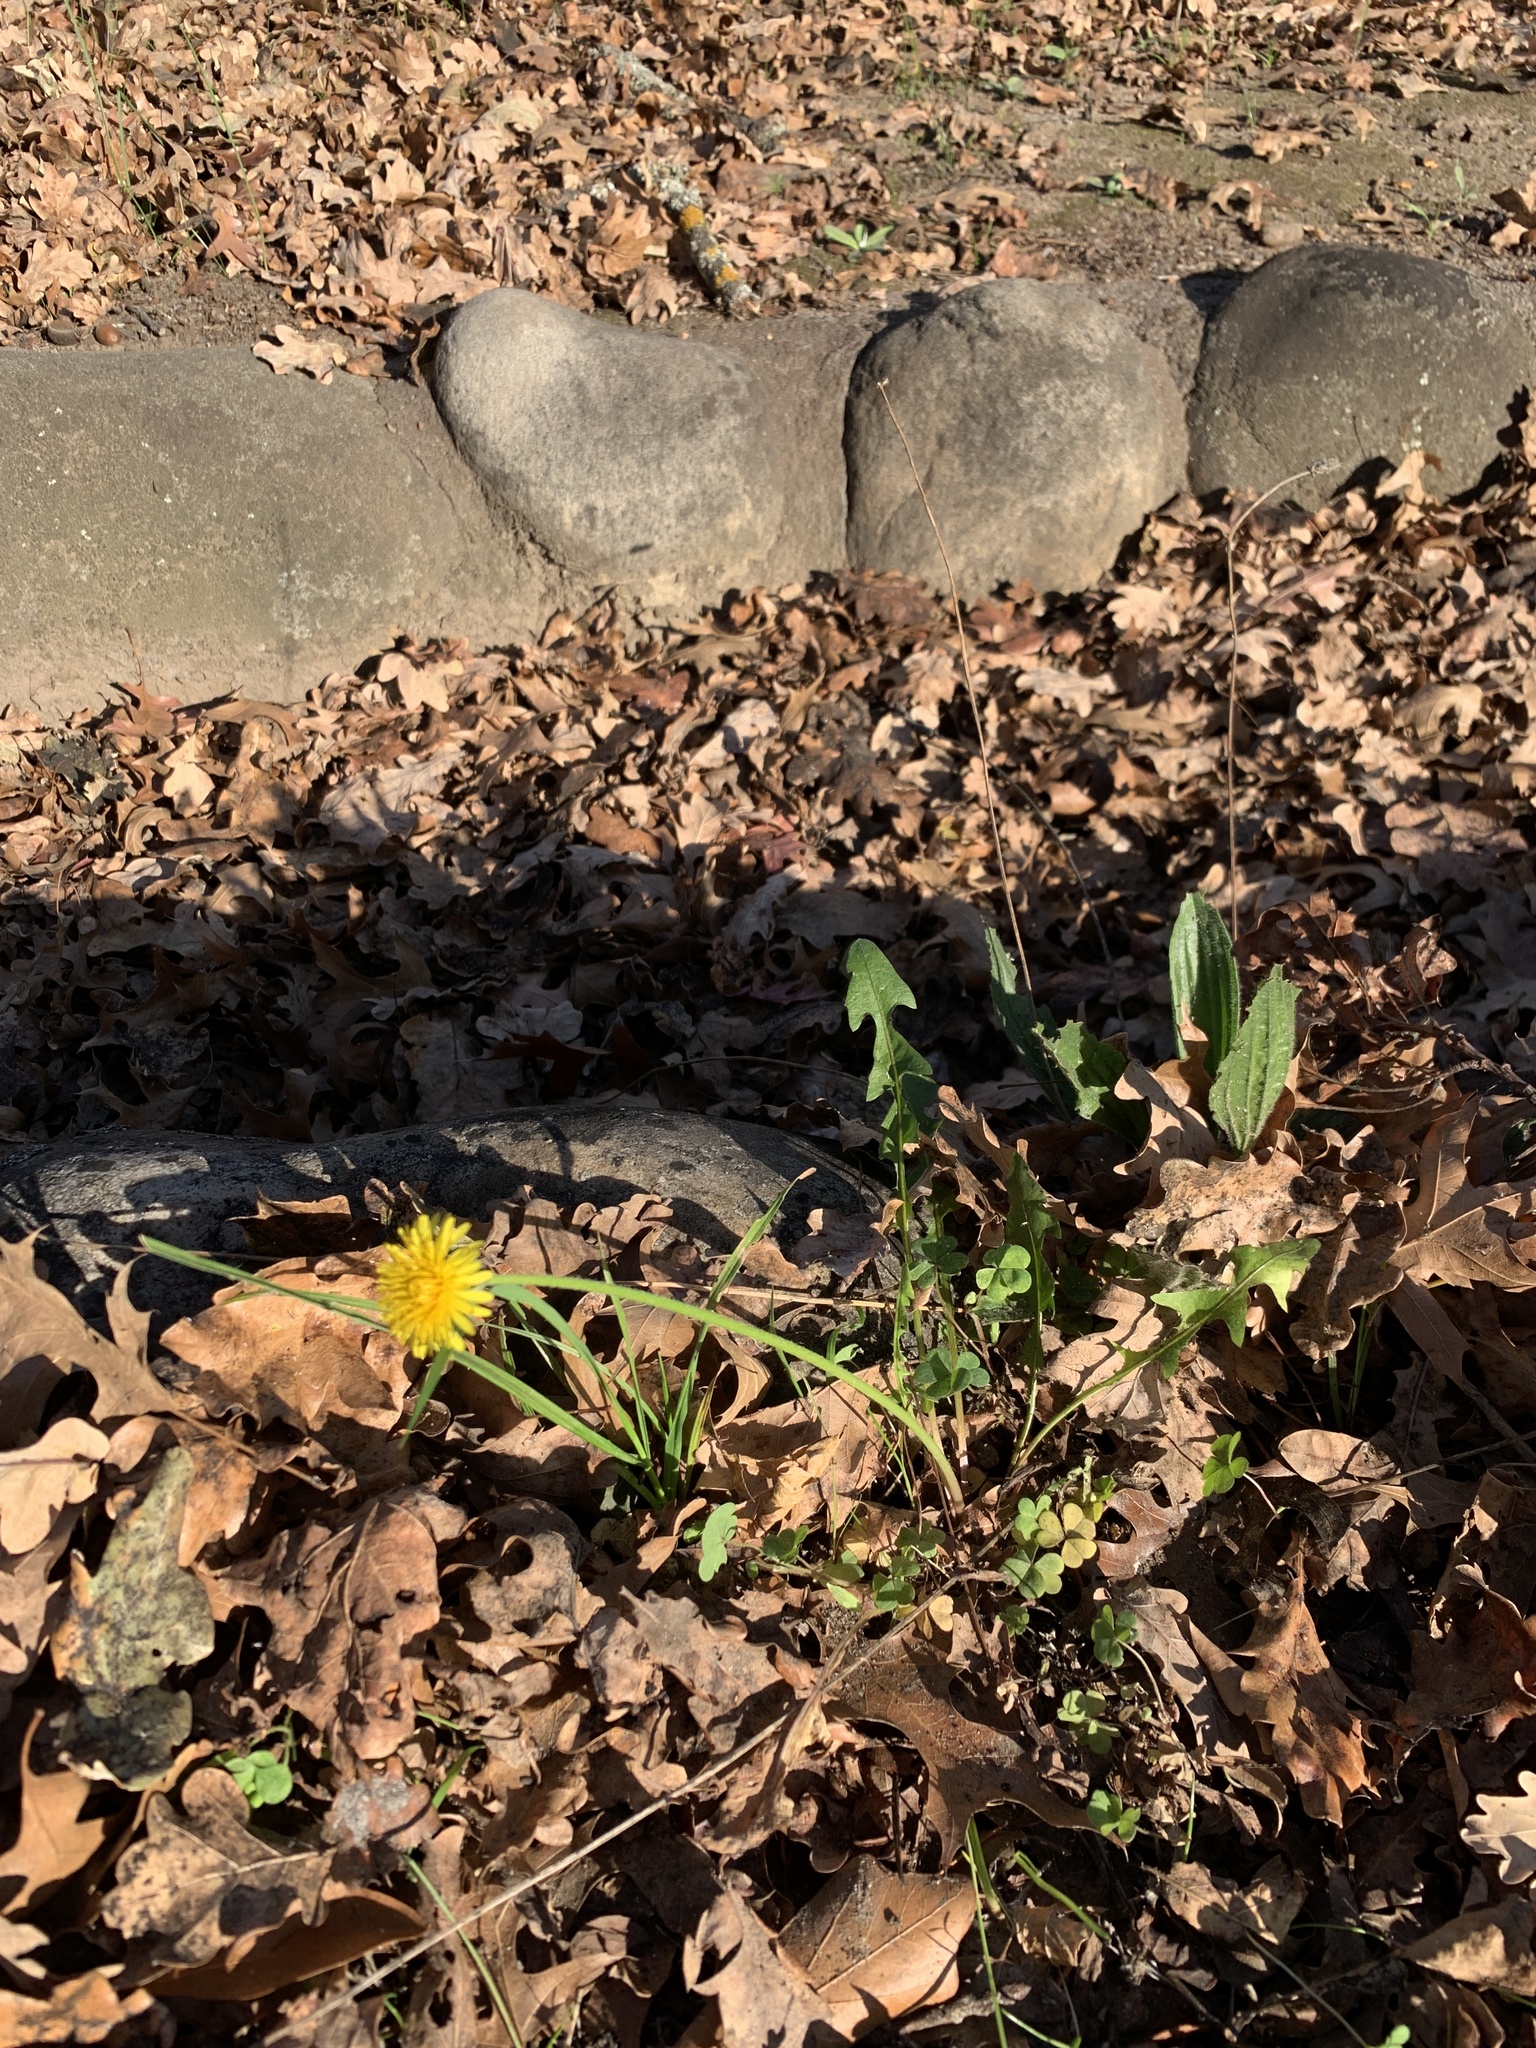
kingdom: Plantae
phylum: Tracheophyta
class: Magnoliopsida
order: Asterales
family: Asteraceae
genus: Taraxacum
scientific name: Taraxacum officinale
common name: Common dandelion
